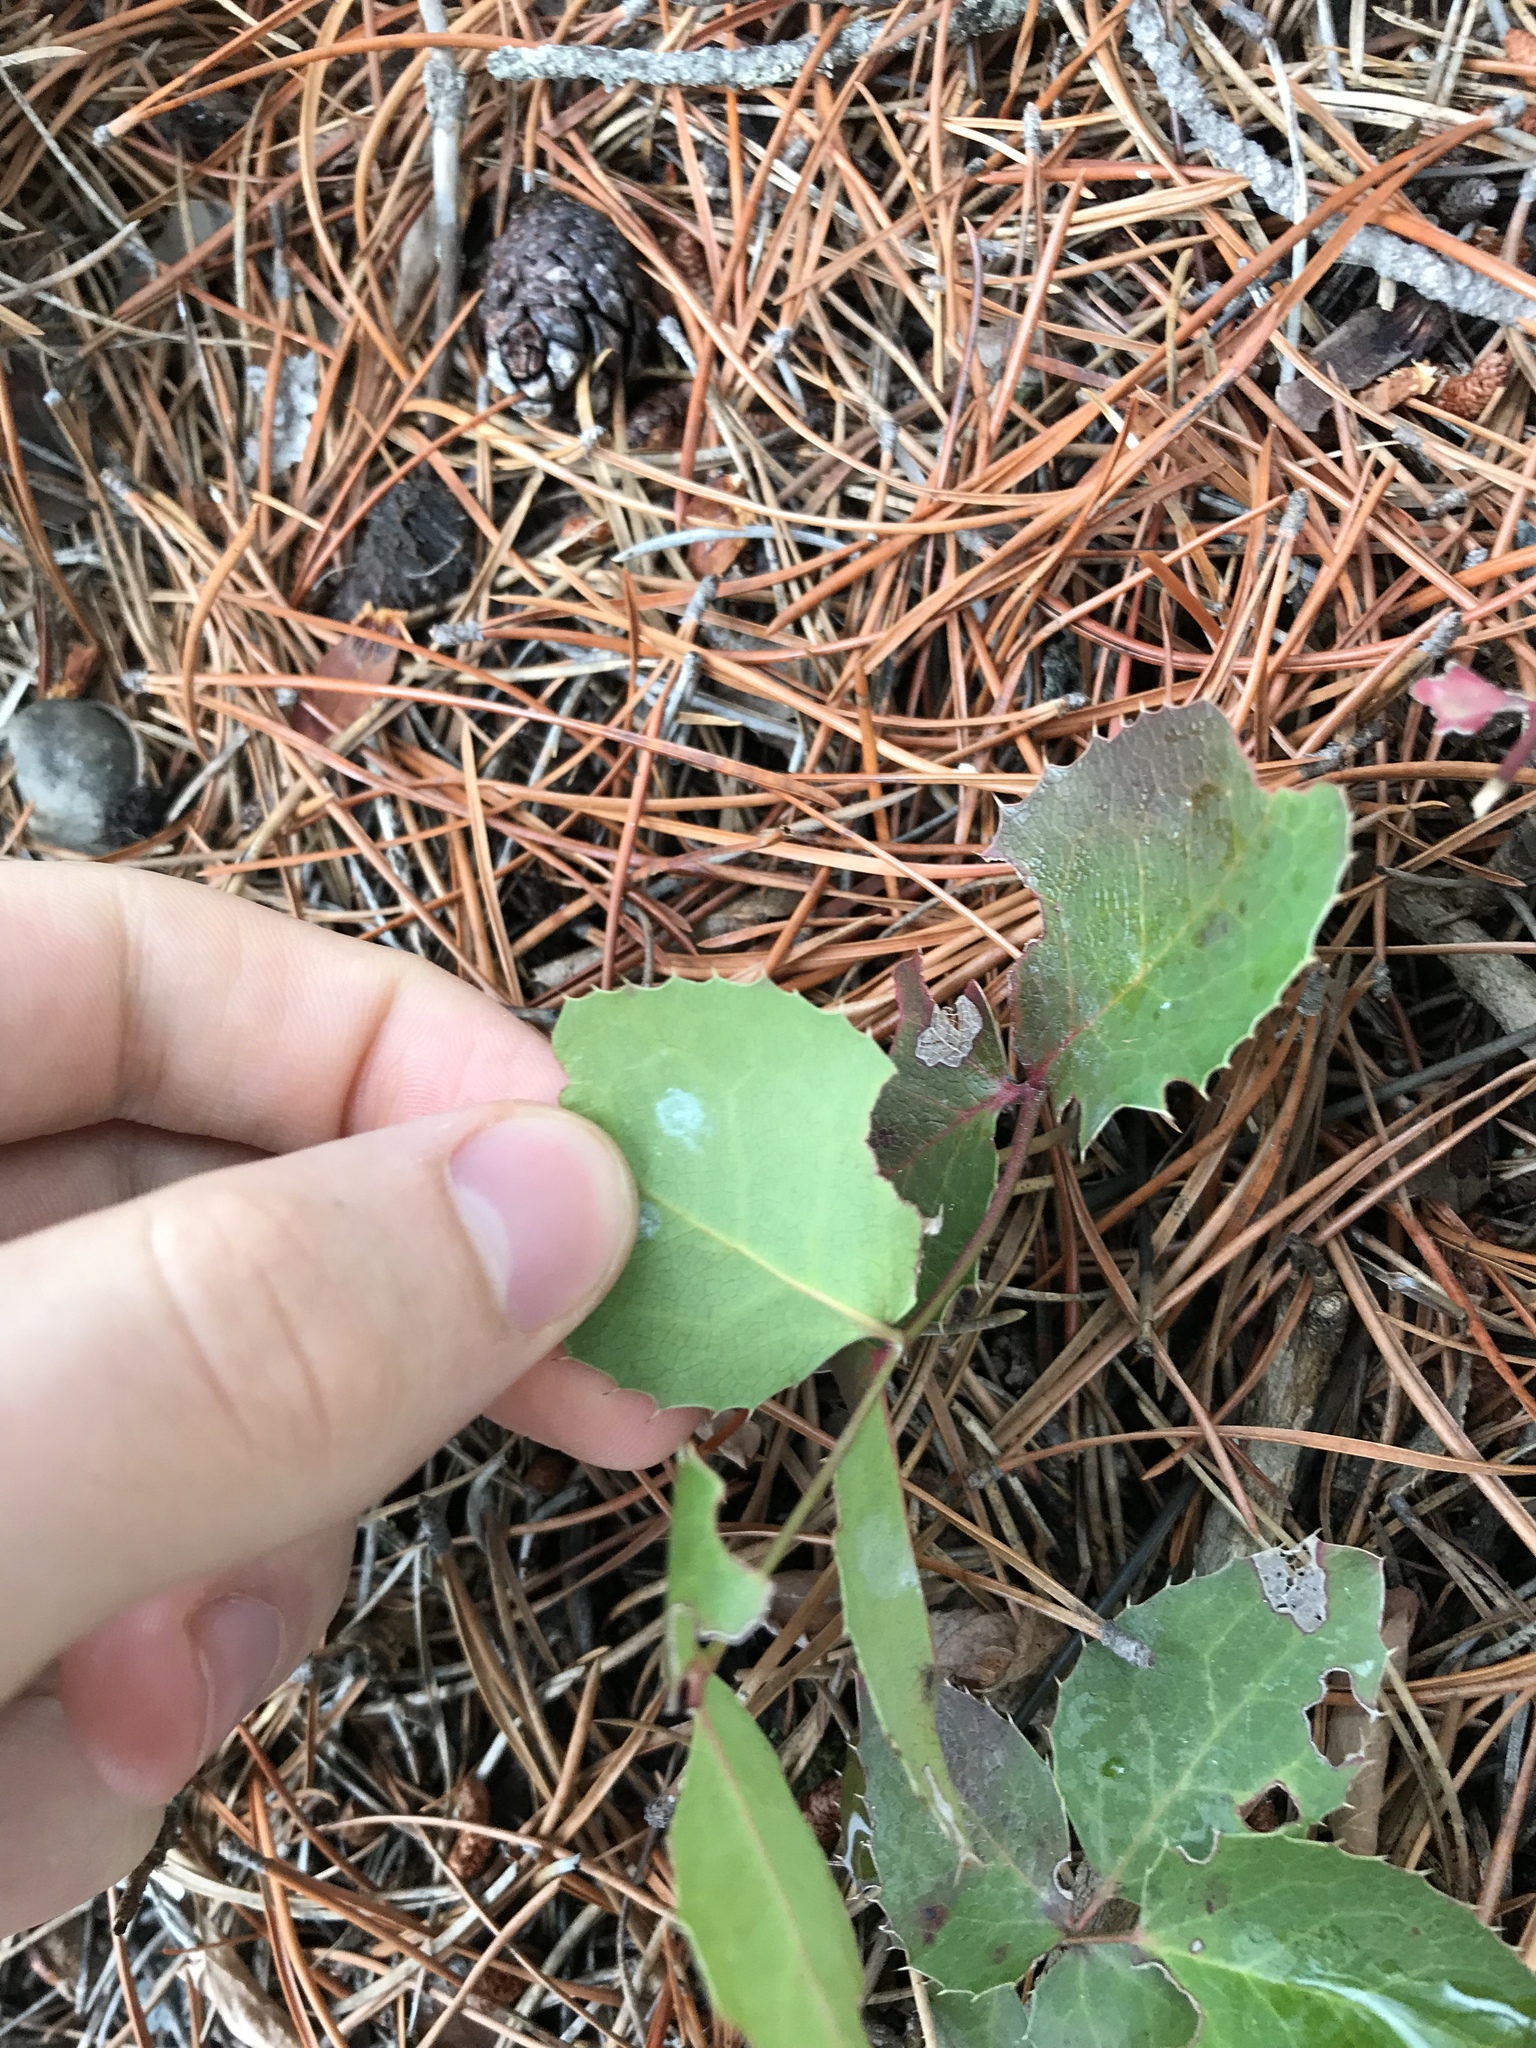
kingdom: Plantae
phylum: Tracheophyta
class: Magnoliopsida
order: Ranunculales
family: Berberidaceae
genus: Mahonia
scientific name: Mahonia repens
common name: Creeping oregon-grape
